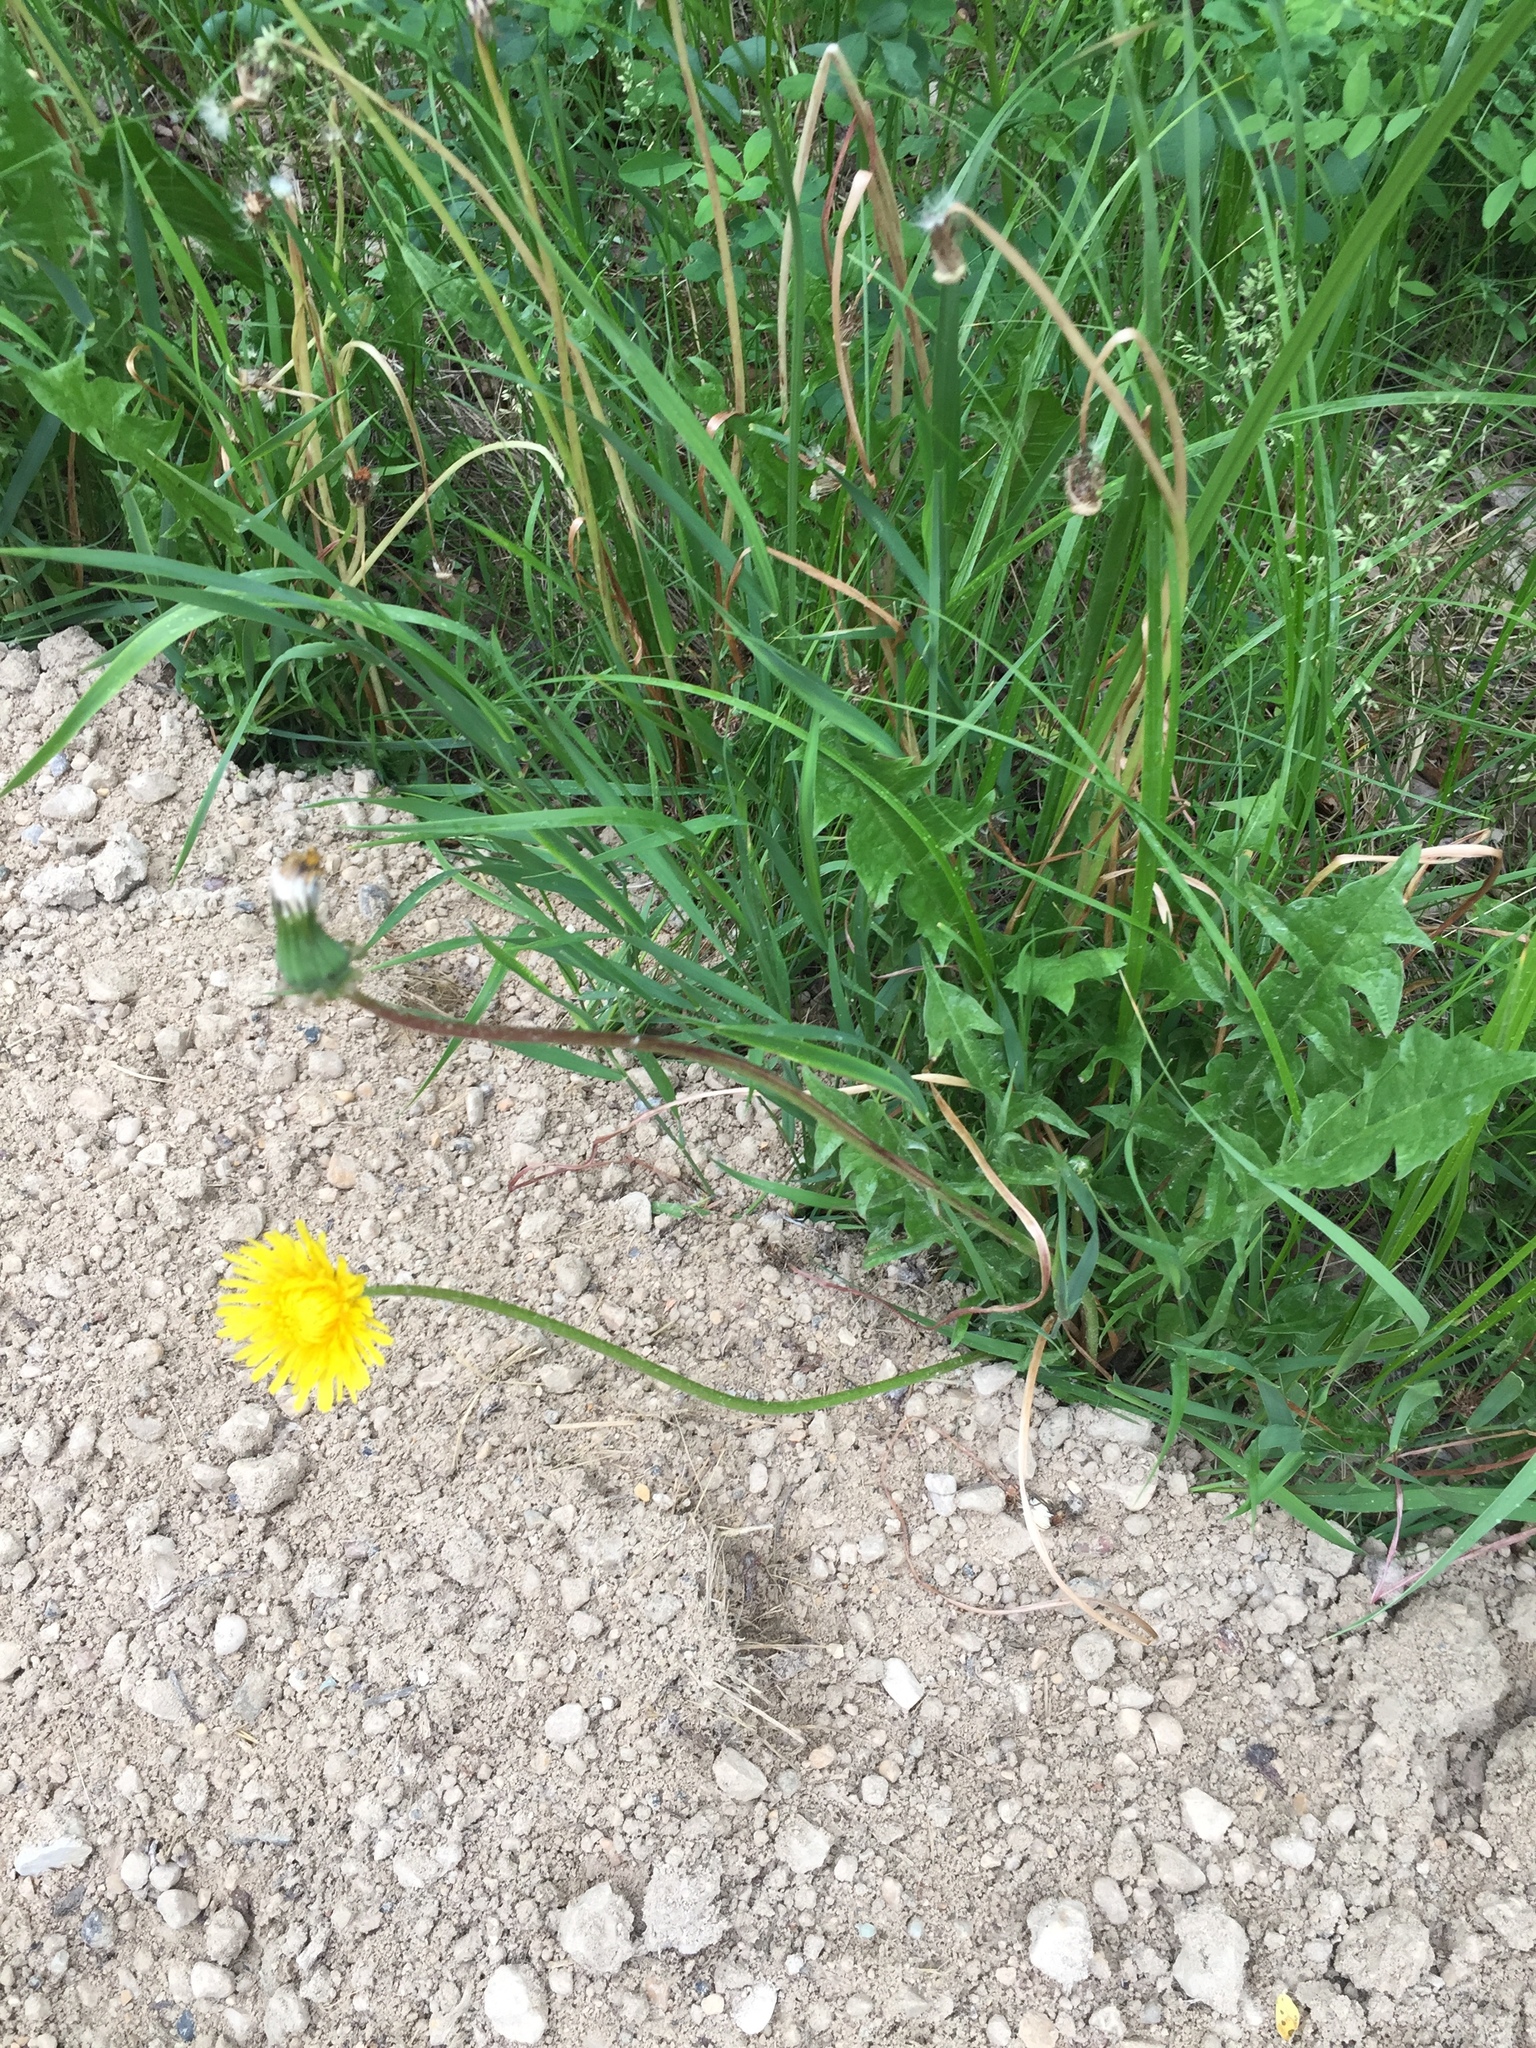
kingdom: Plantae
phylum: Tracheophyta
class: Magnoliopsida
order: Asterales
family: Asteraceae
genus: Taraxacum
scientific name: Taraxacum officinale
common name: Common dandelion
